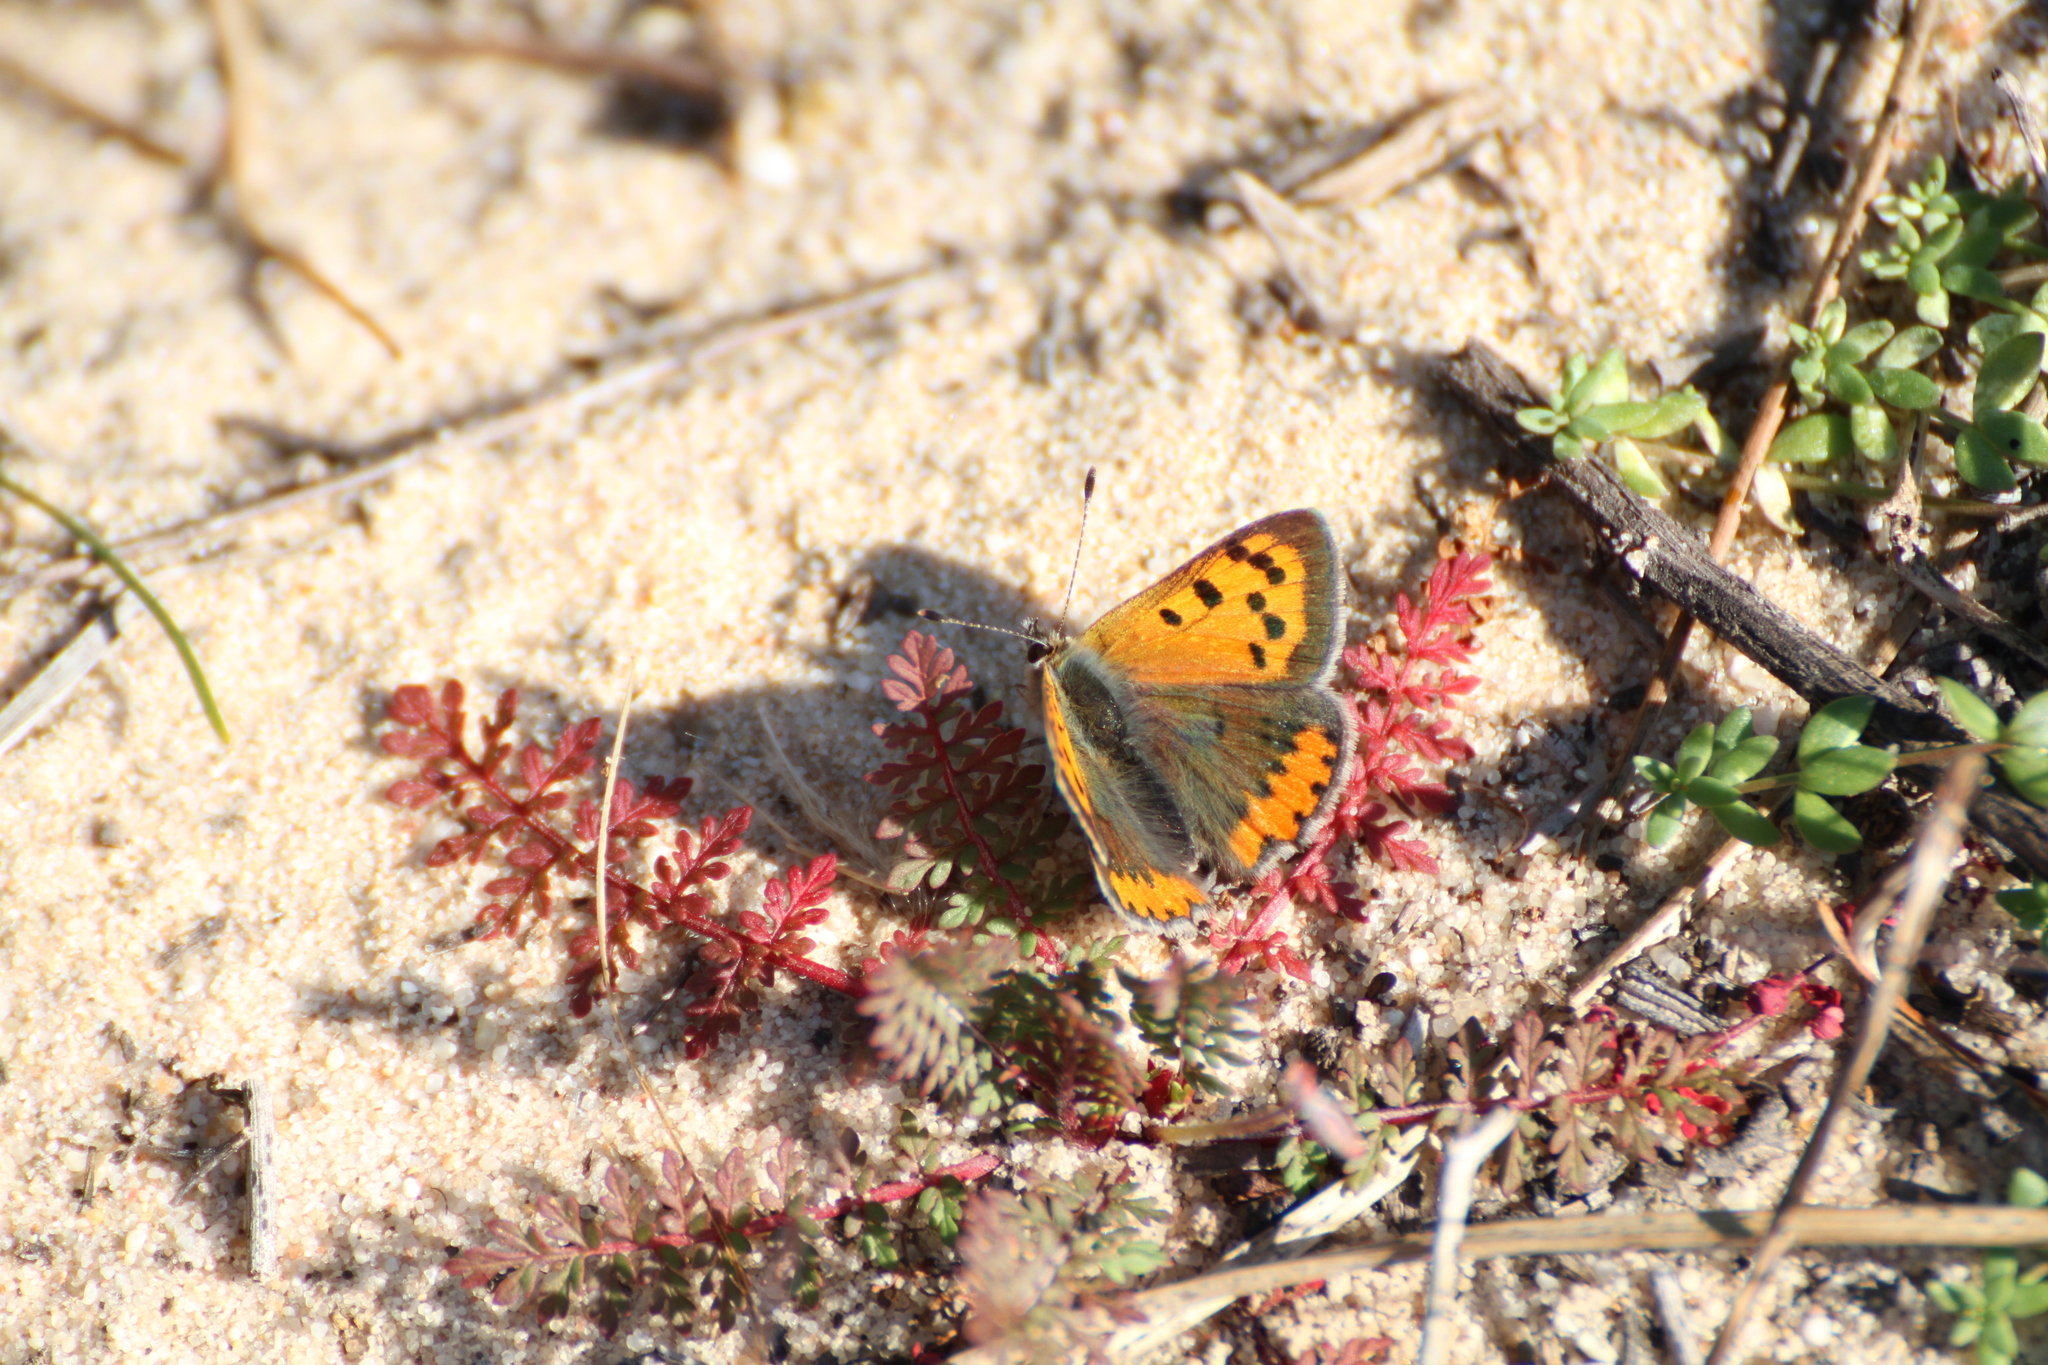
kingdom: Animalia
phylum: Arthropoda
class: Insecta
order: Lepidoptera
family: Lycaenidae
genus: Lycaena
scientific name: Lycaena phlaeas
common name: Small copper
